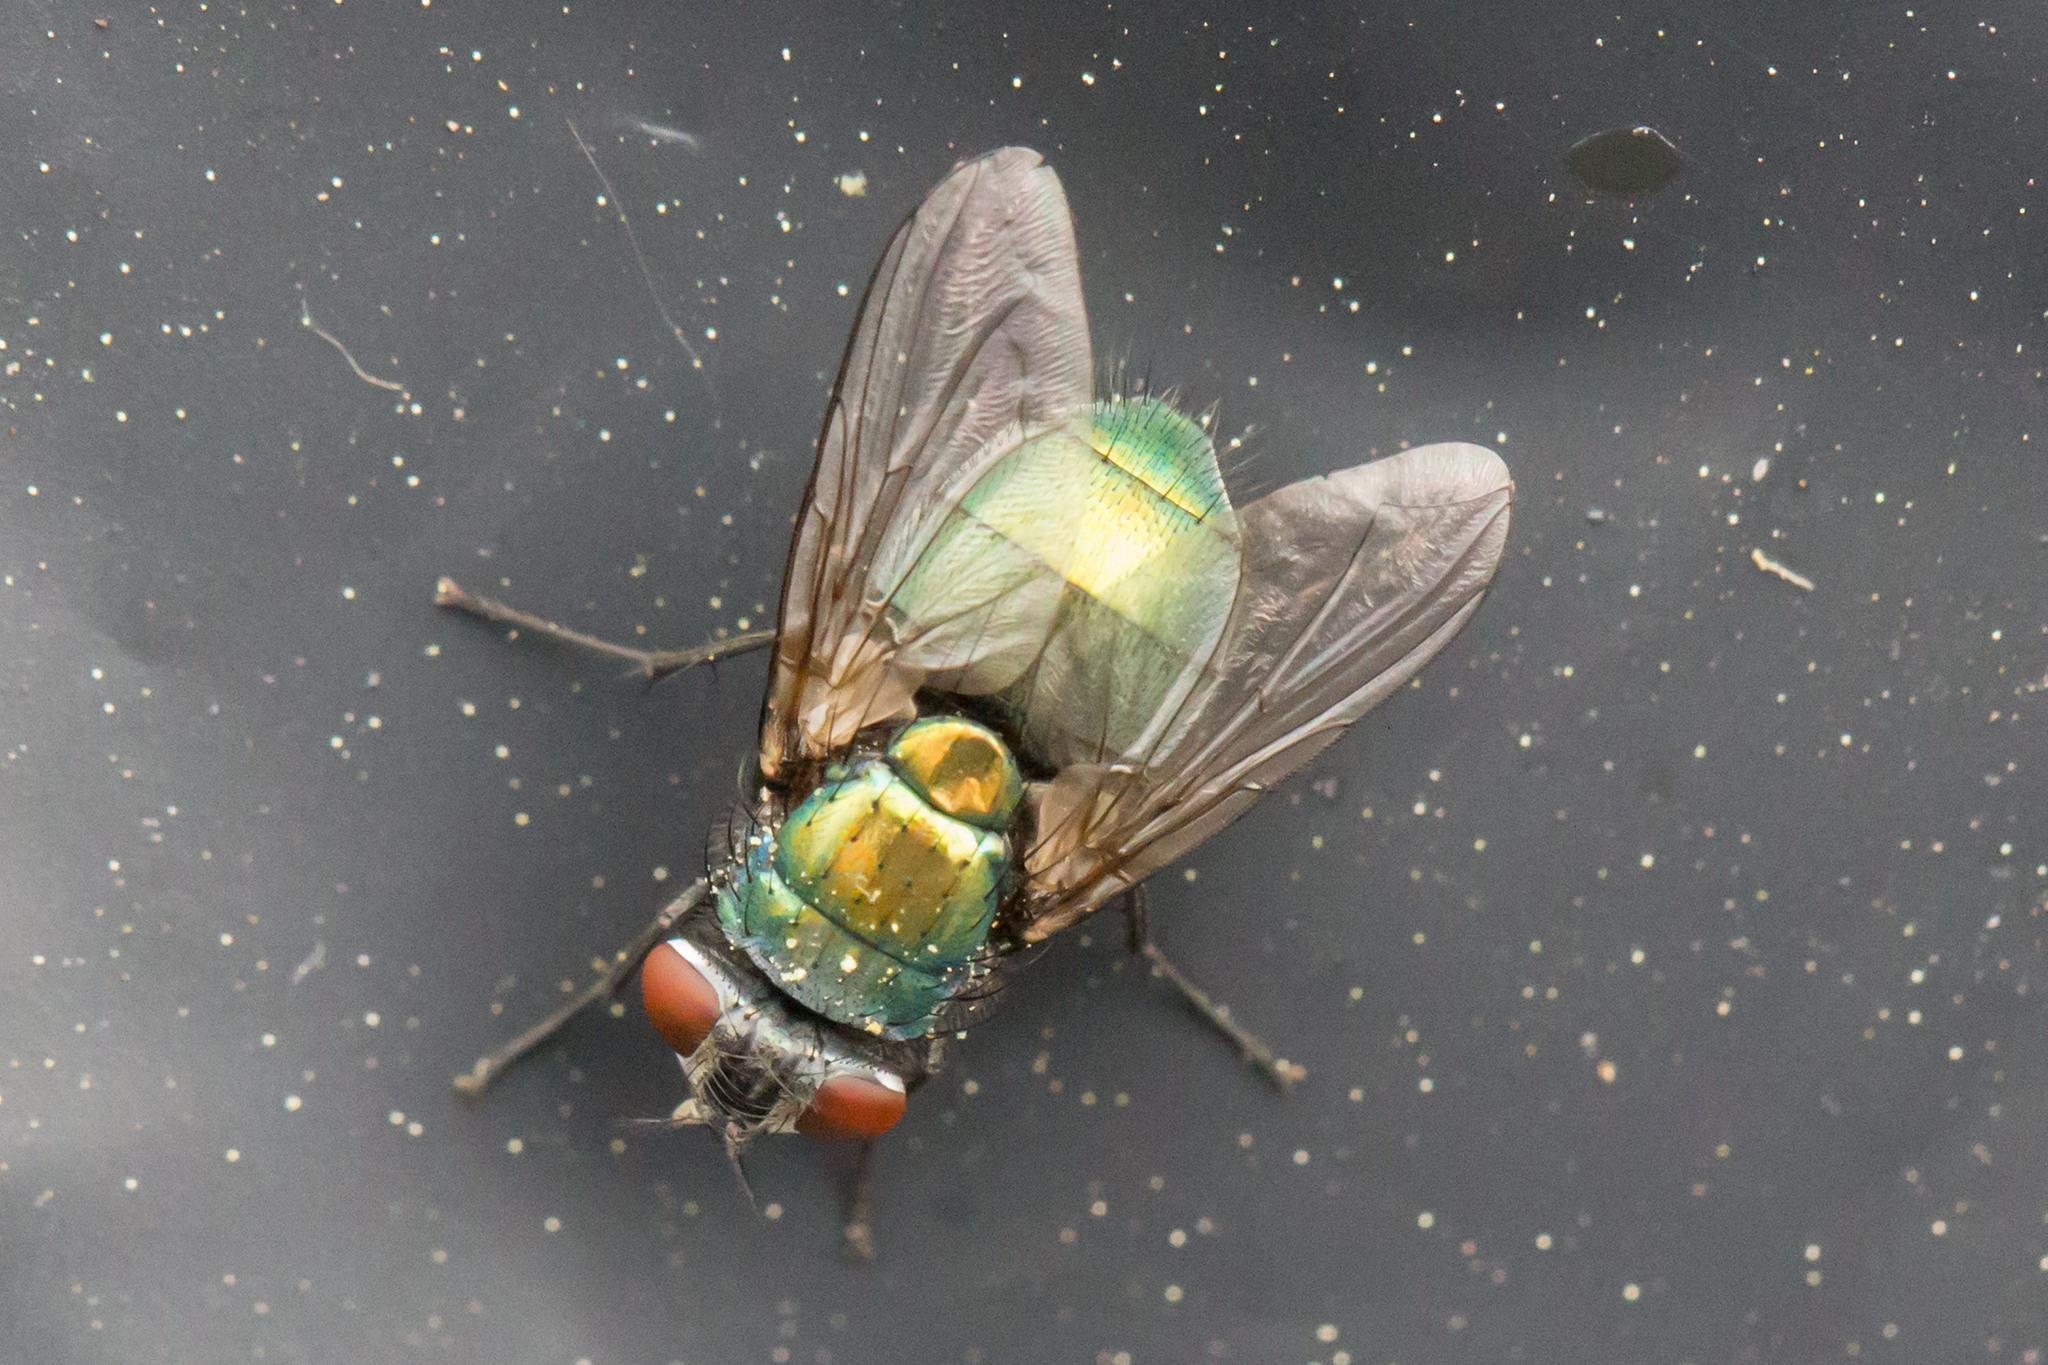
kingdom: Animalia
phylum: Arthropoda
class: Insecta
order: Diptera
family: Calliphoridae
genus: Lucilia
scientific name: Lucilia sericata
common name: Blow fly
